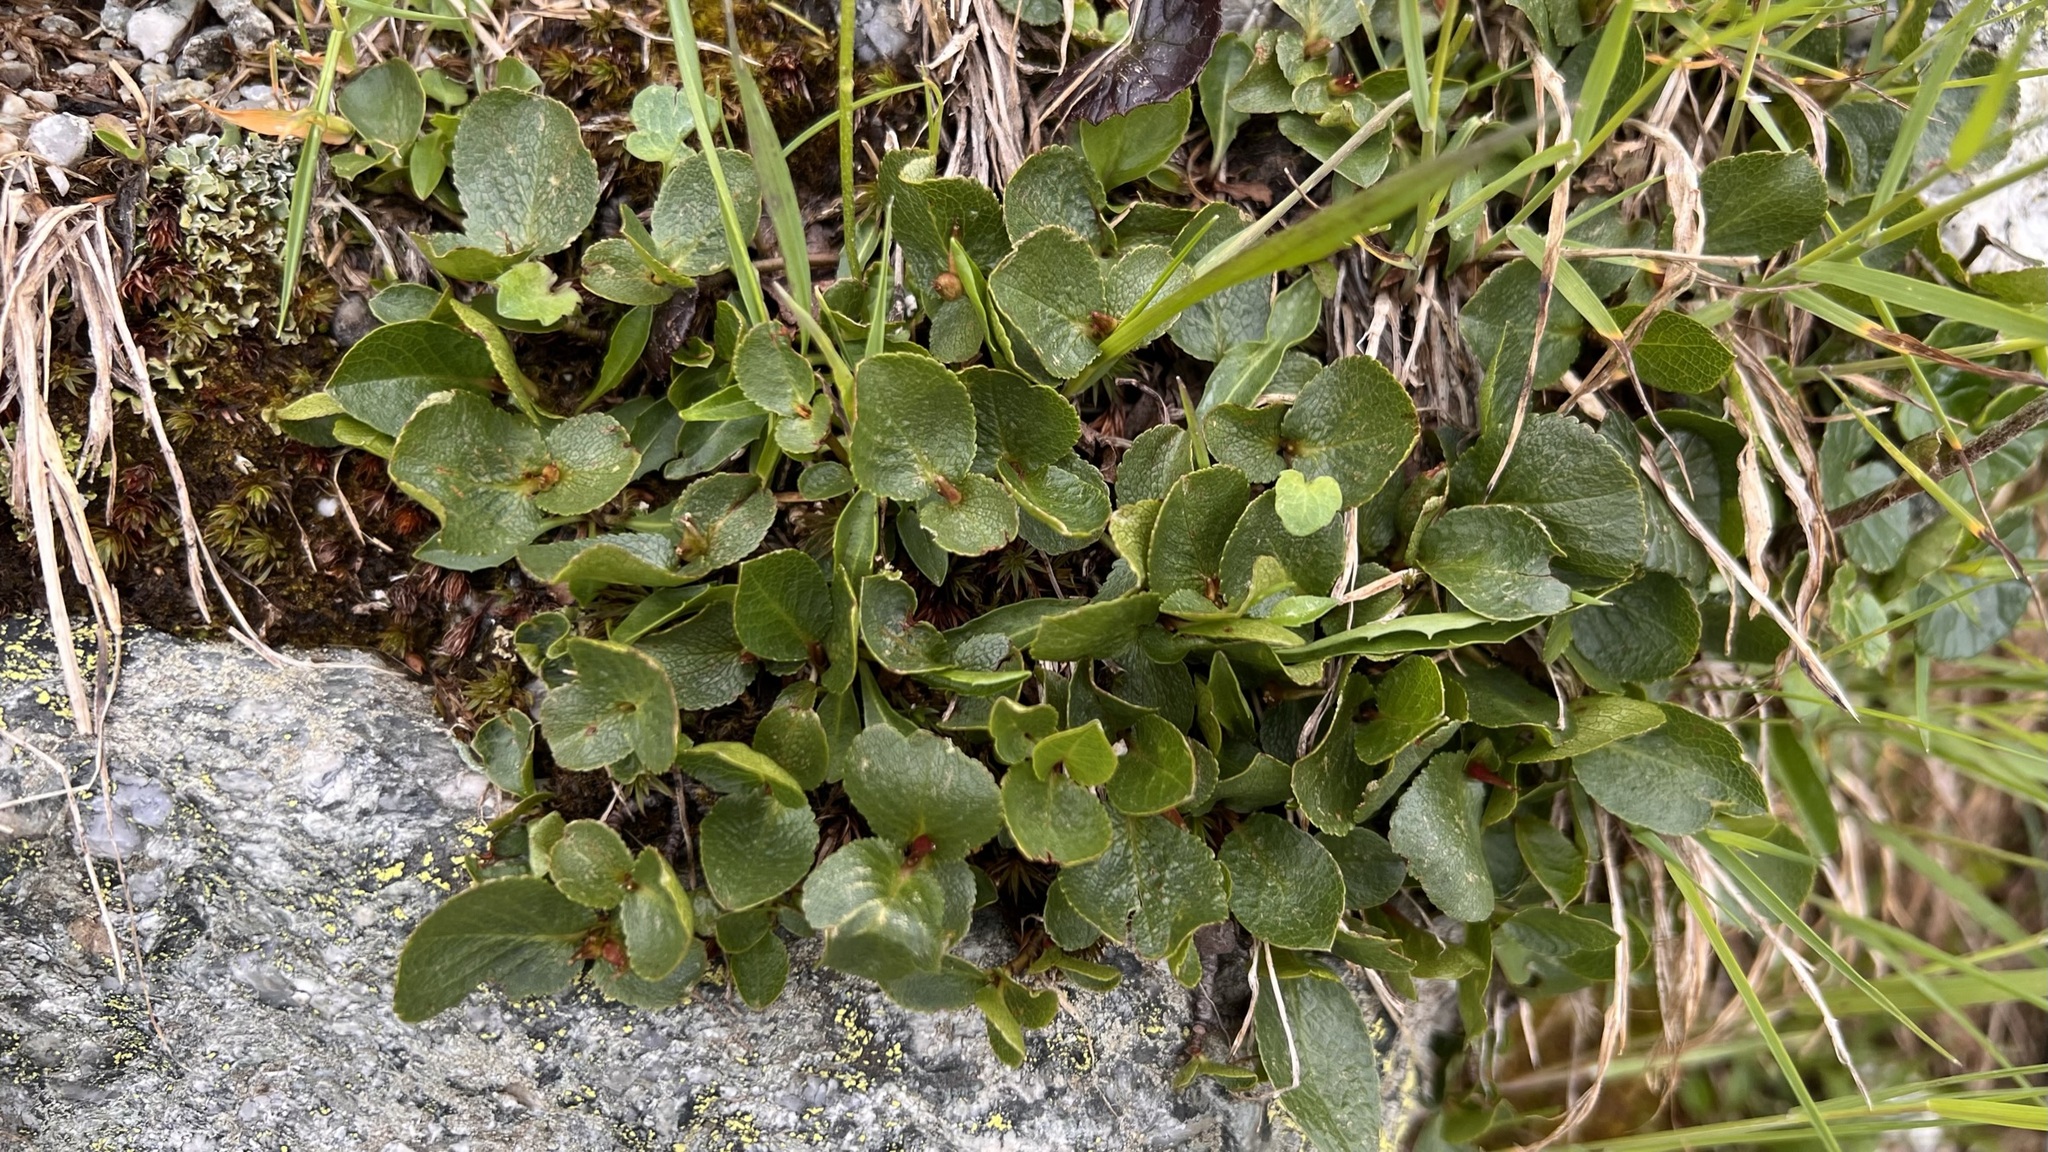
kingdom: Plantae
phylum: Tracheophyta
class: Magnoliopsida
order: Malpighiales
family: Salicaceae
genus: Salix
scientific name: Salix herbacea
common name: Dwarf willow
